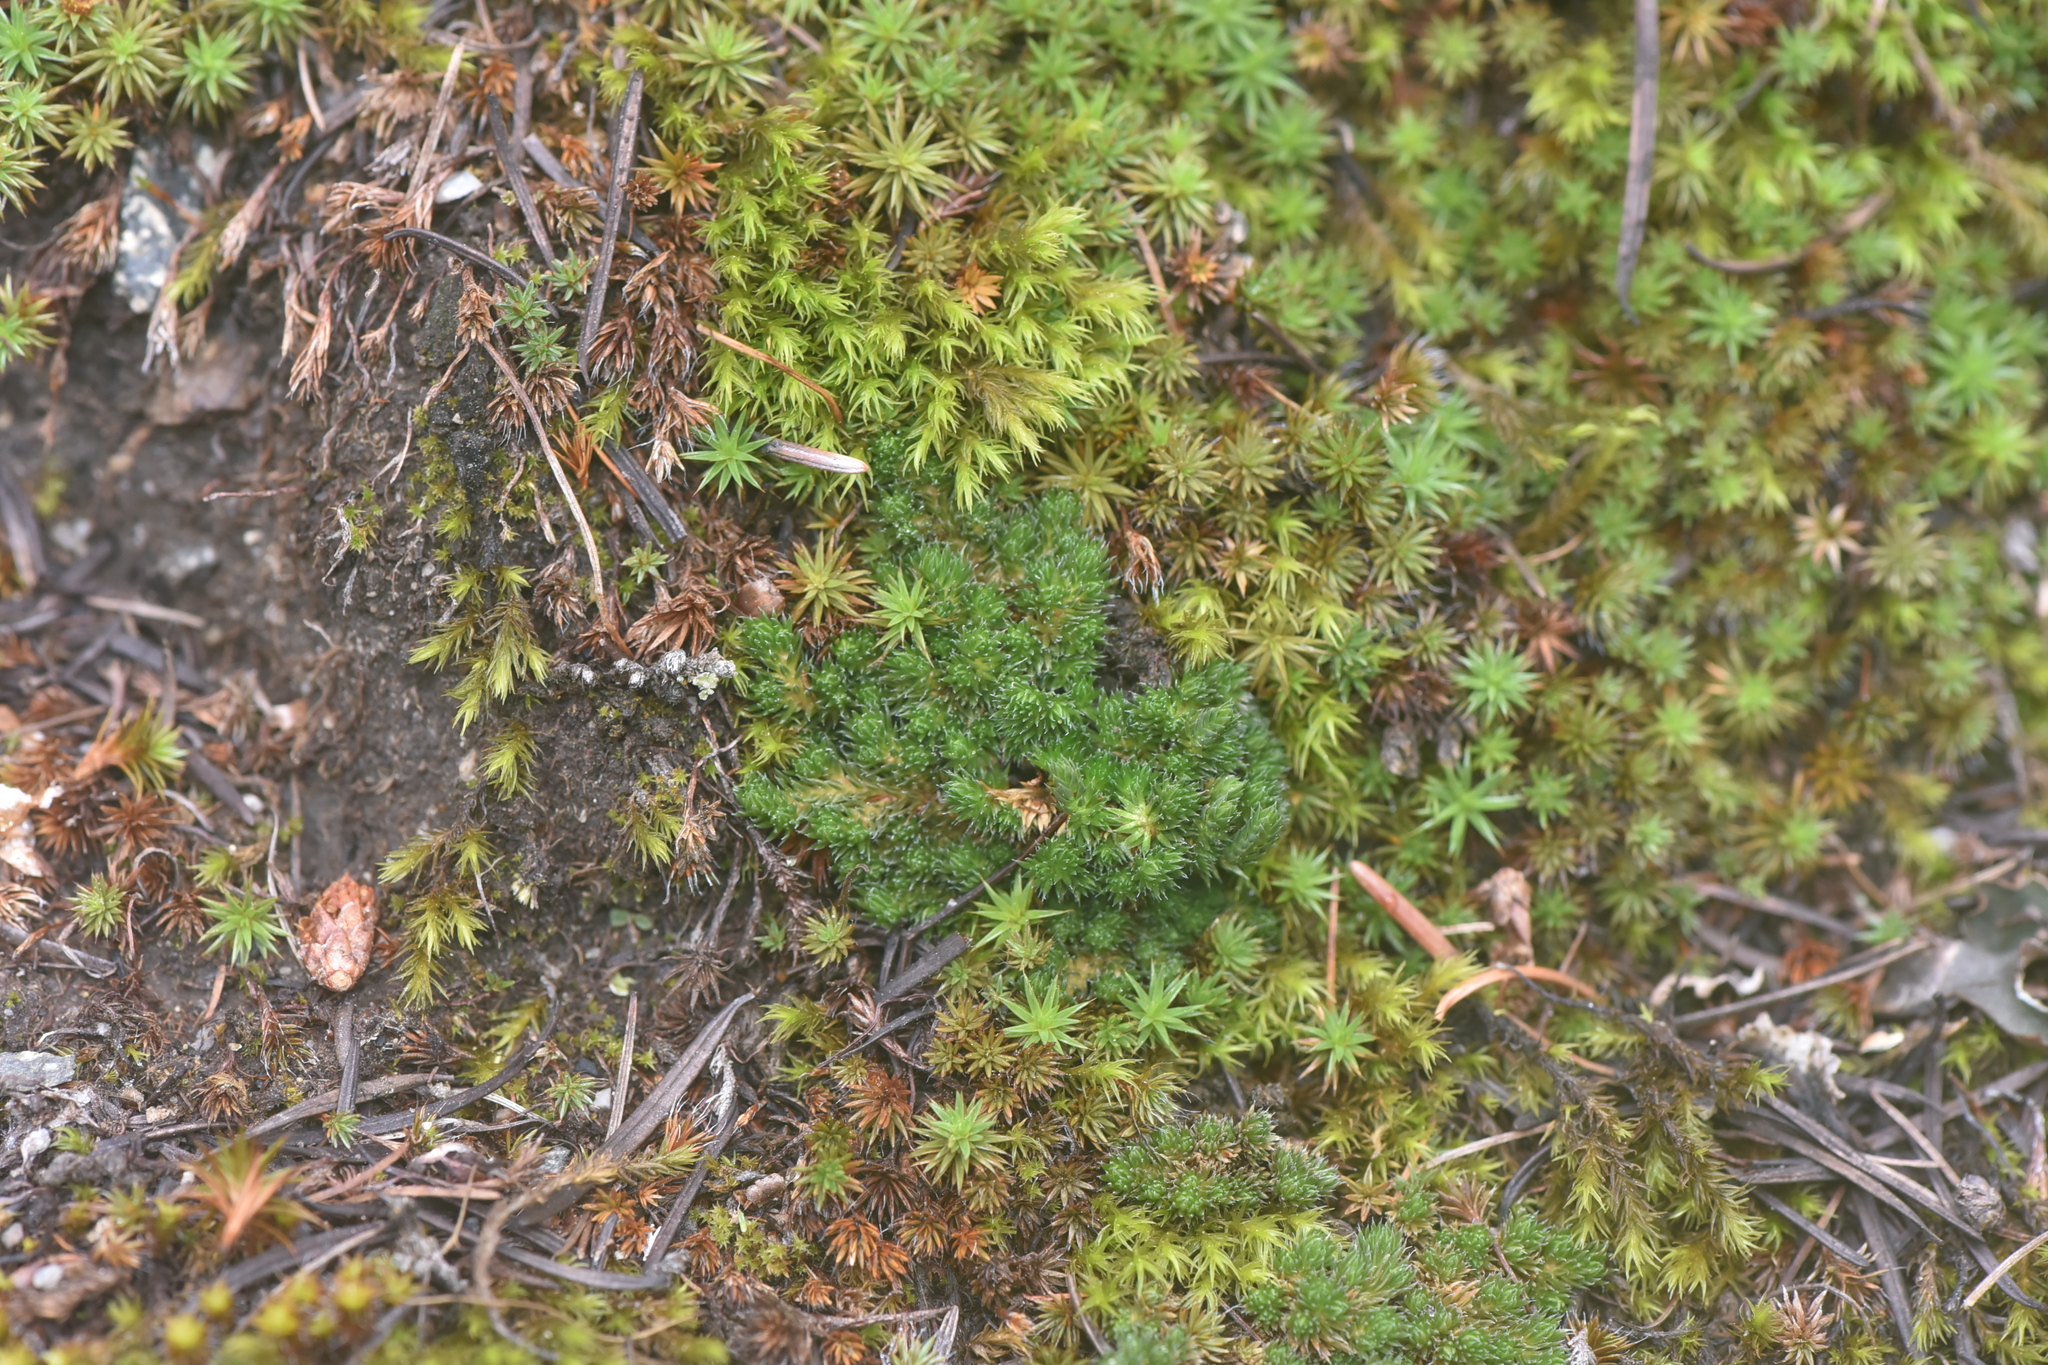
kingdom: Plantae
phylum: Bryophyta
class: Polytrichopsida
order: Polytrichales
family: Polytrichaceae
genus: Polytrichum
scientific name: Polytrichum piliferum
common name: Bristly haircap
